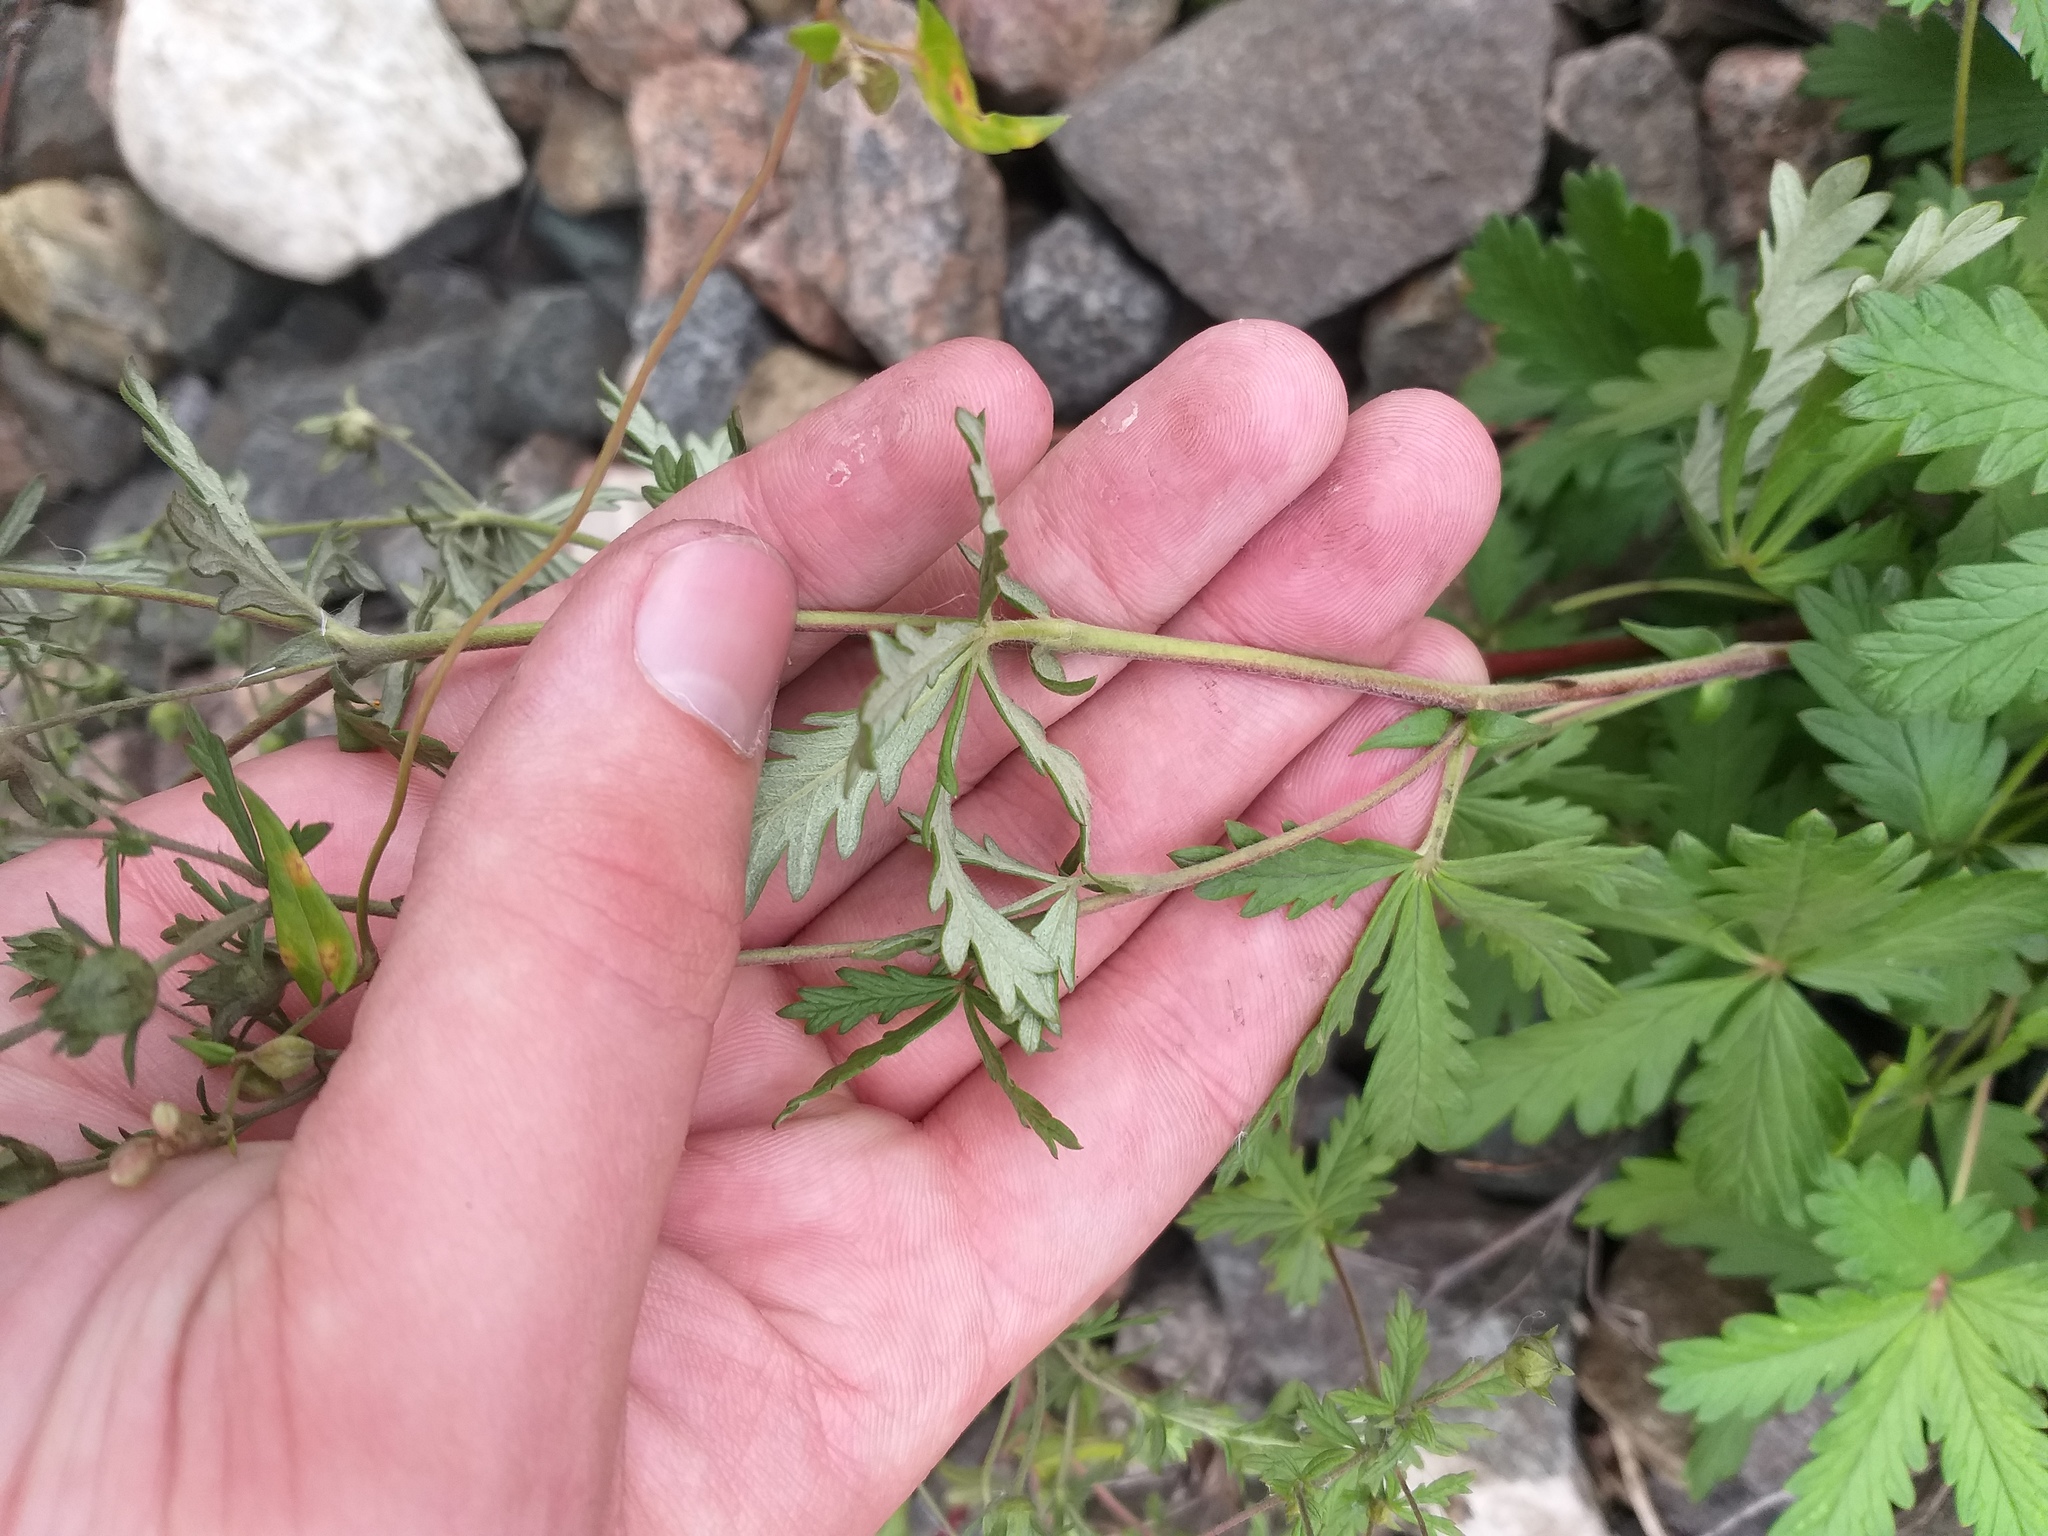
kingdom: Plantae
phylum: Tracheophyta
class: Magnoliopsida
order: Rosales
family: Rosaceae
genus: Potentilla
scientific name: Potentilla argentea
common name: Hoary cinquefoil
